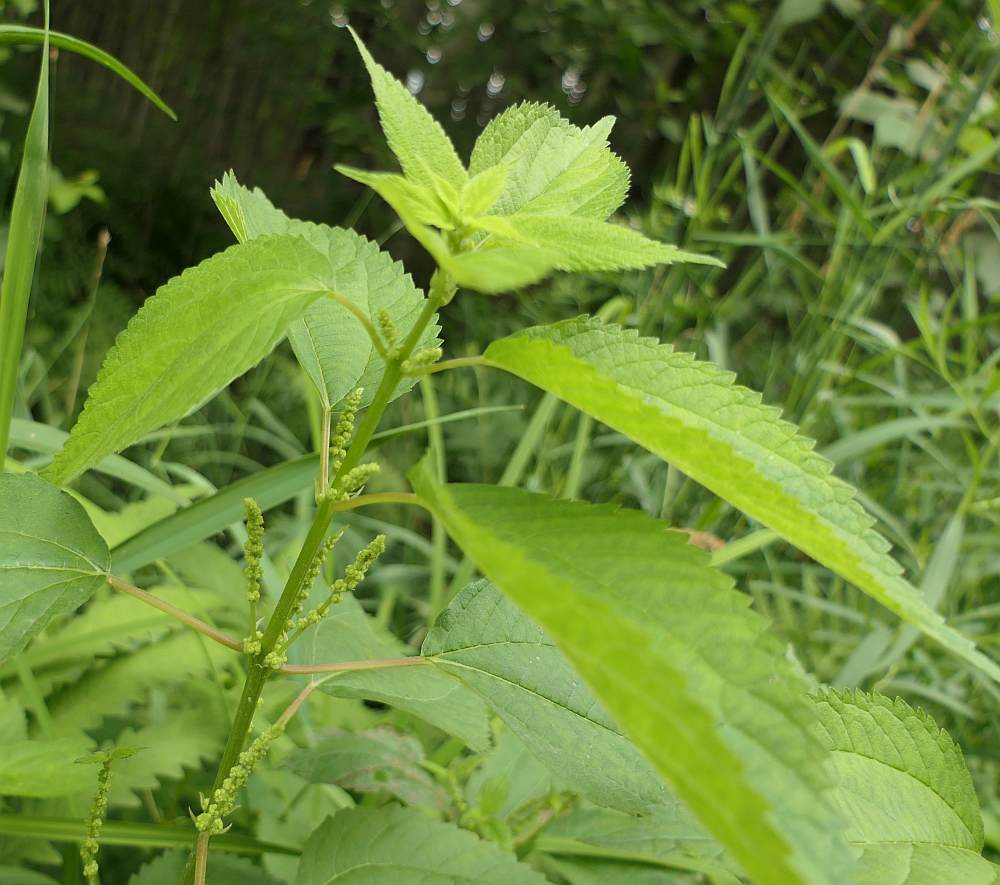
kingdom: Plantae
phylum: Tracheophyta
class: Magnoliopsida
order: Rosales
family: Urticaceae
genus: Boehmeria
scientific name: Boehmeria cylindrica
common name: Bog-hemp
